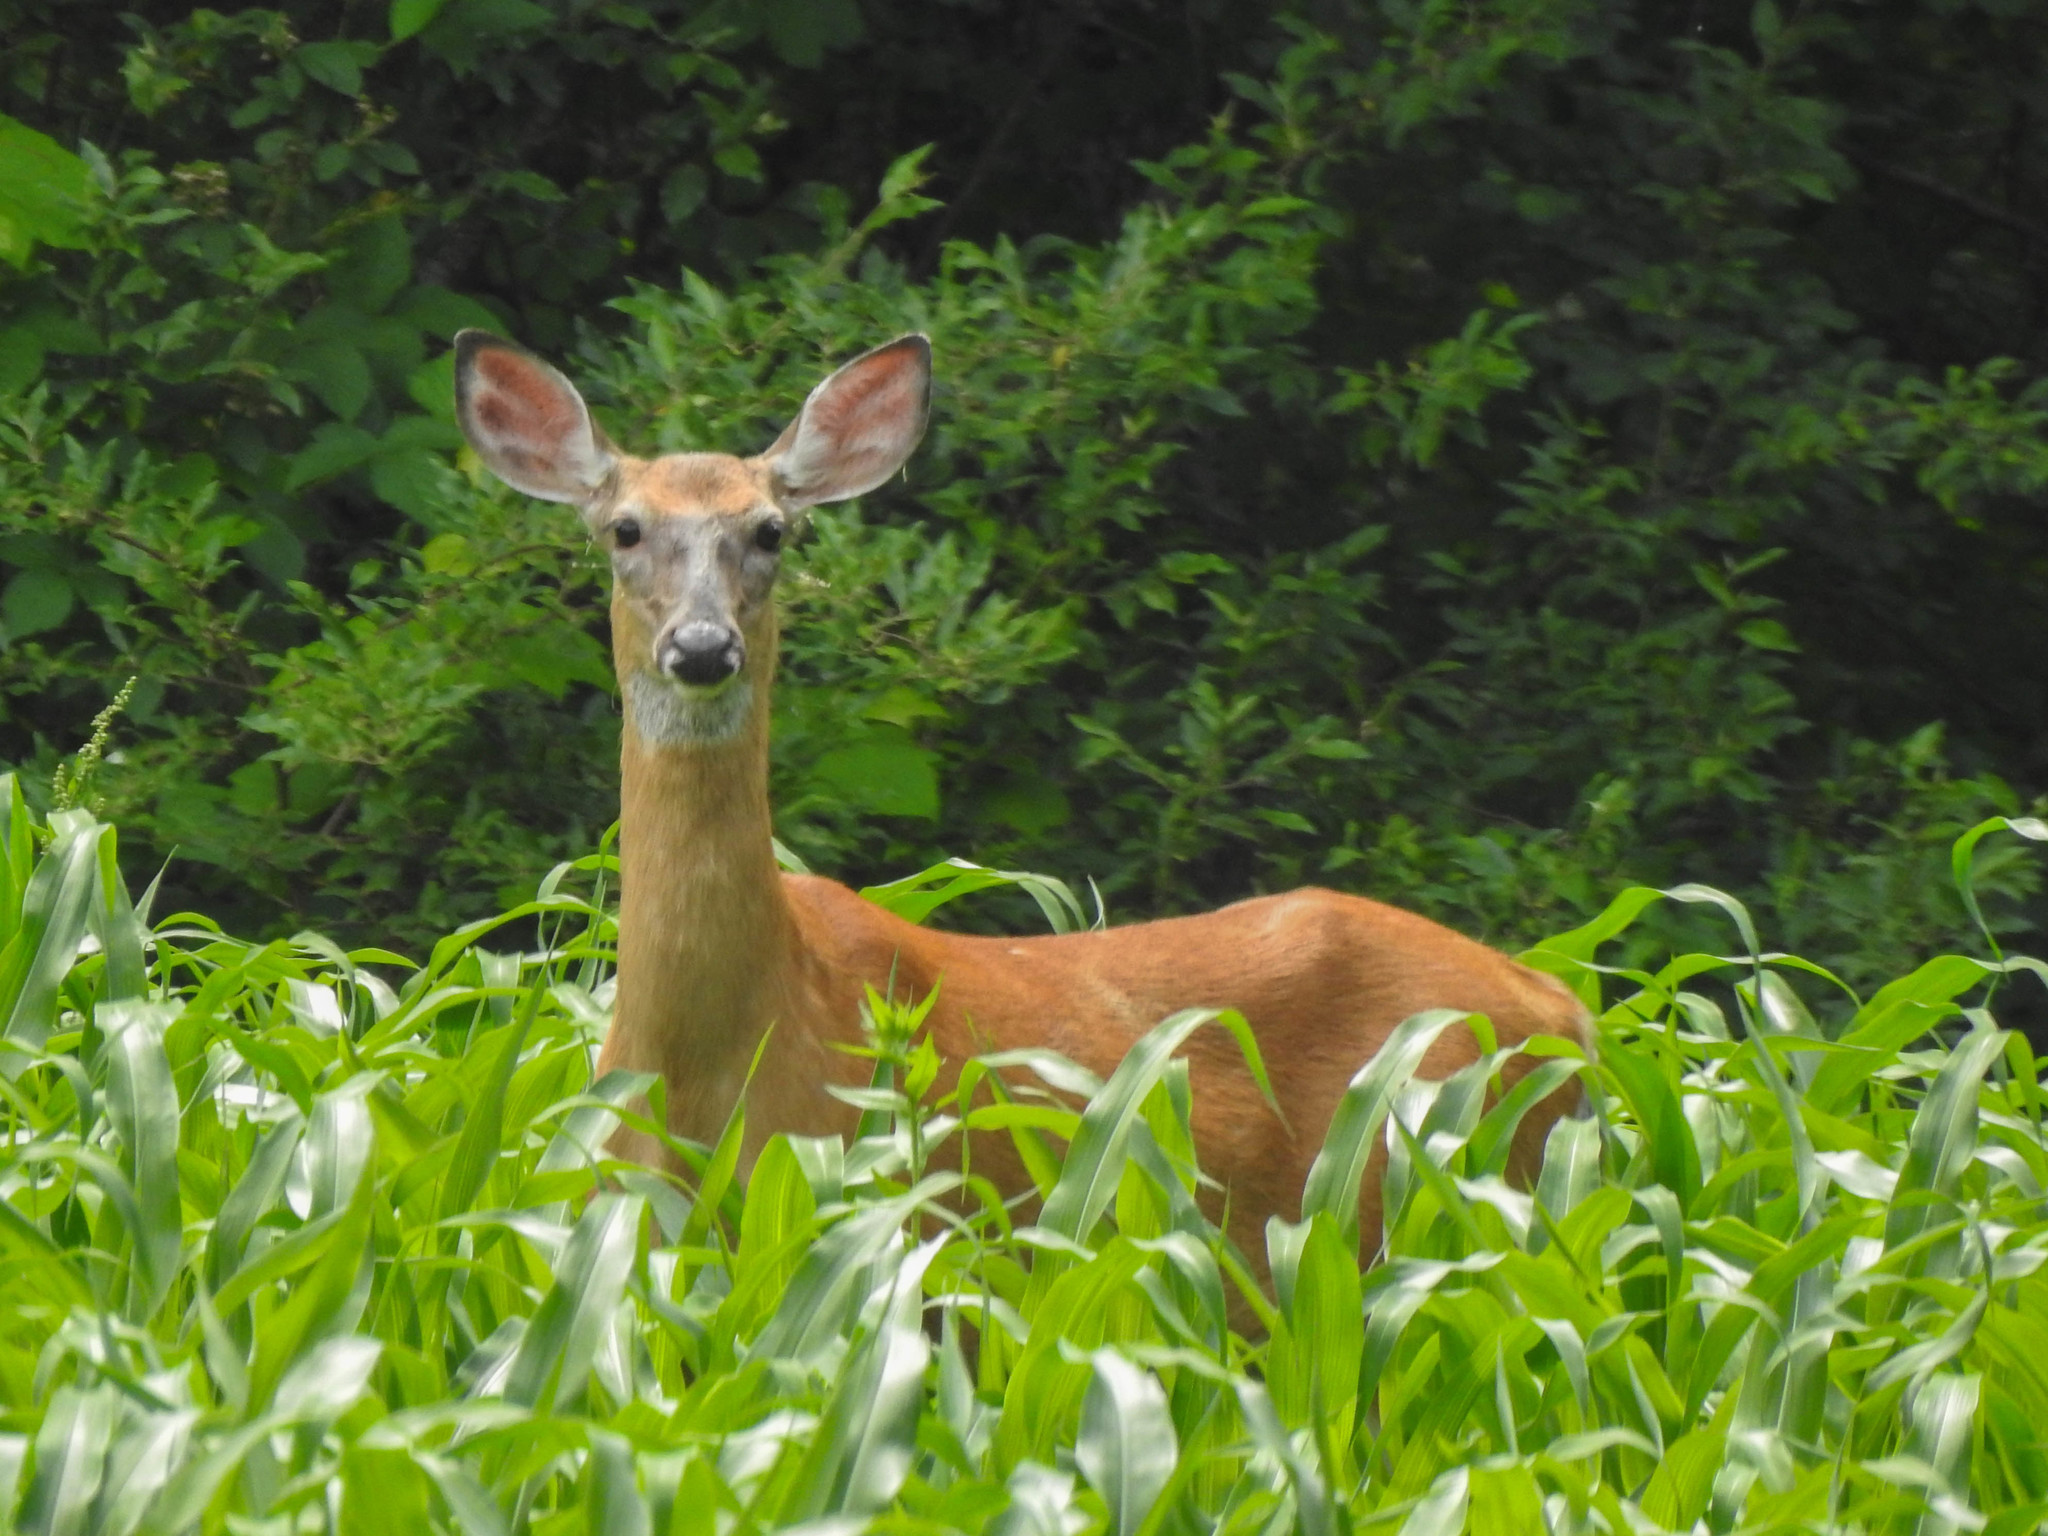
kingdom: Animalia
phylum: Chordata
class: Mammalia
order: Artiodactyla
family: Cervidae
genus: Odocoileus
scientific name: Odocoileus virginianus
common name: White-tailed deer
